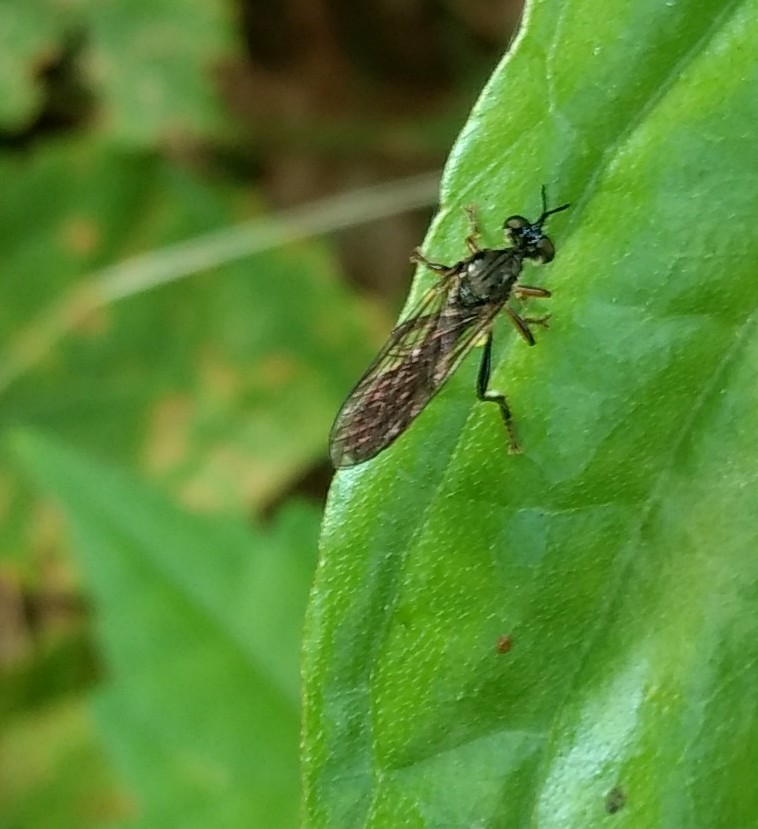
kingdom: Animalia
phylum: Arthropoda
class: Insecta
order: Diptera
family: Asilidae
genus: Dioctria
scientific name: Dioctria hyalipennis
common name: Stripe-legged robberfly
